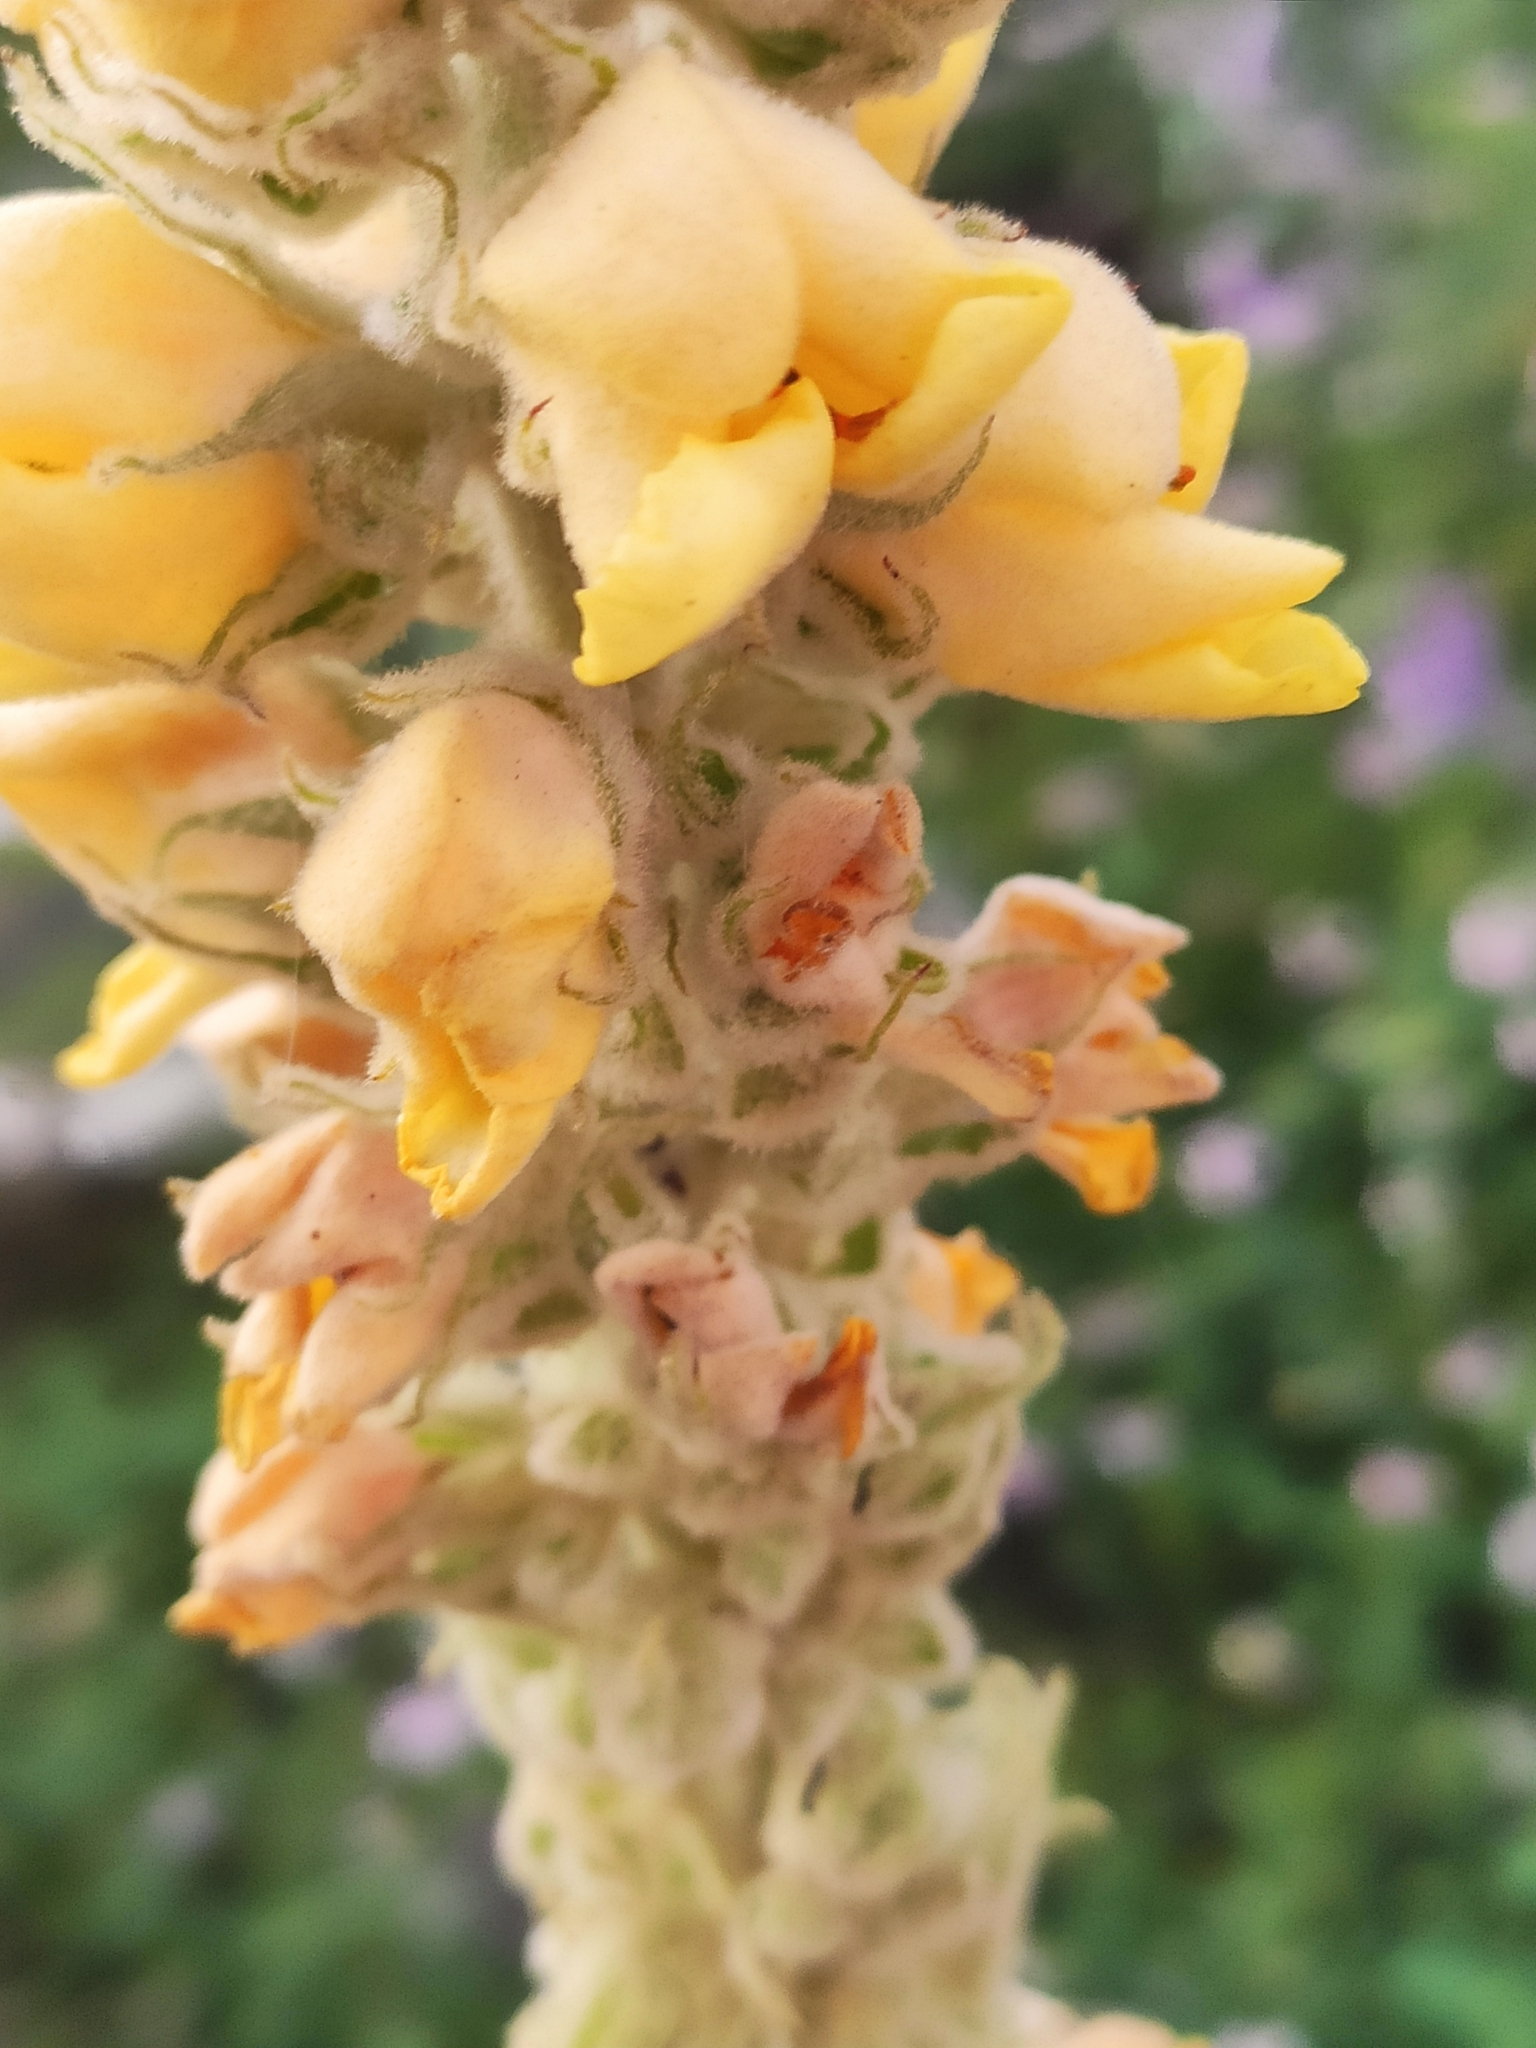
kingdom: Plantae
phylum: Tracheophyta
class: Magnoliopsida
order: Lamiales
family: Scrophulariaceae
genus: Verbascum
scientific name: Verbascum thapsus
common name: Common mullein
